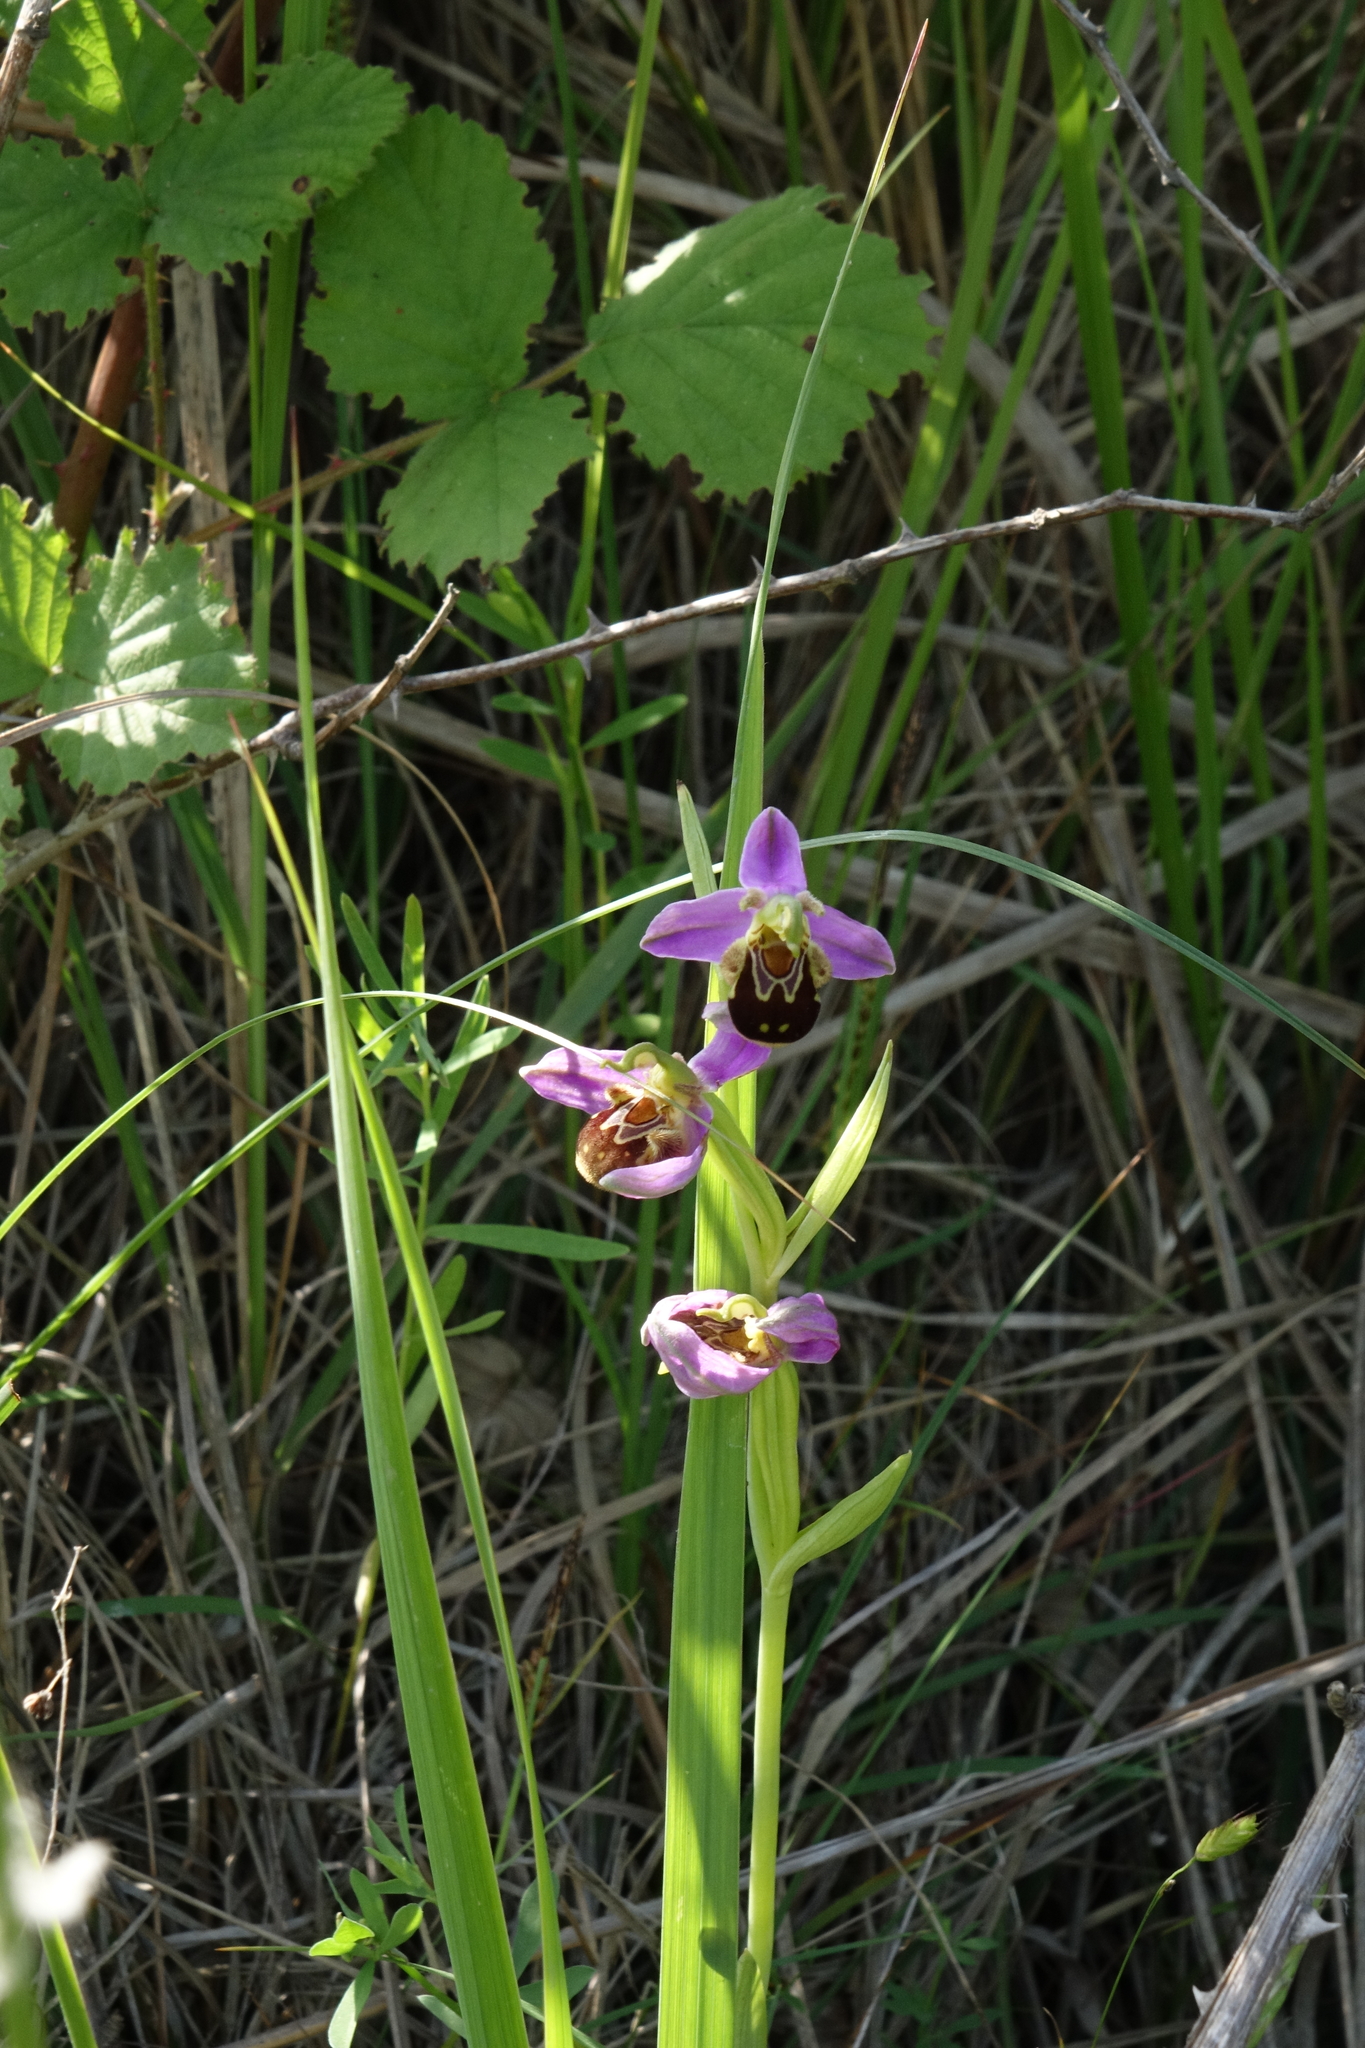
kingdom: Plantae
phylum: Tracheophyta
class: Liliopsida
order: Asparagales
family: Orchidaceae
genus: Ophrys
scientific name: Ophrys apifera
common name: Bee orchid
